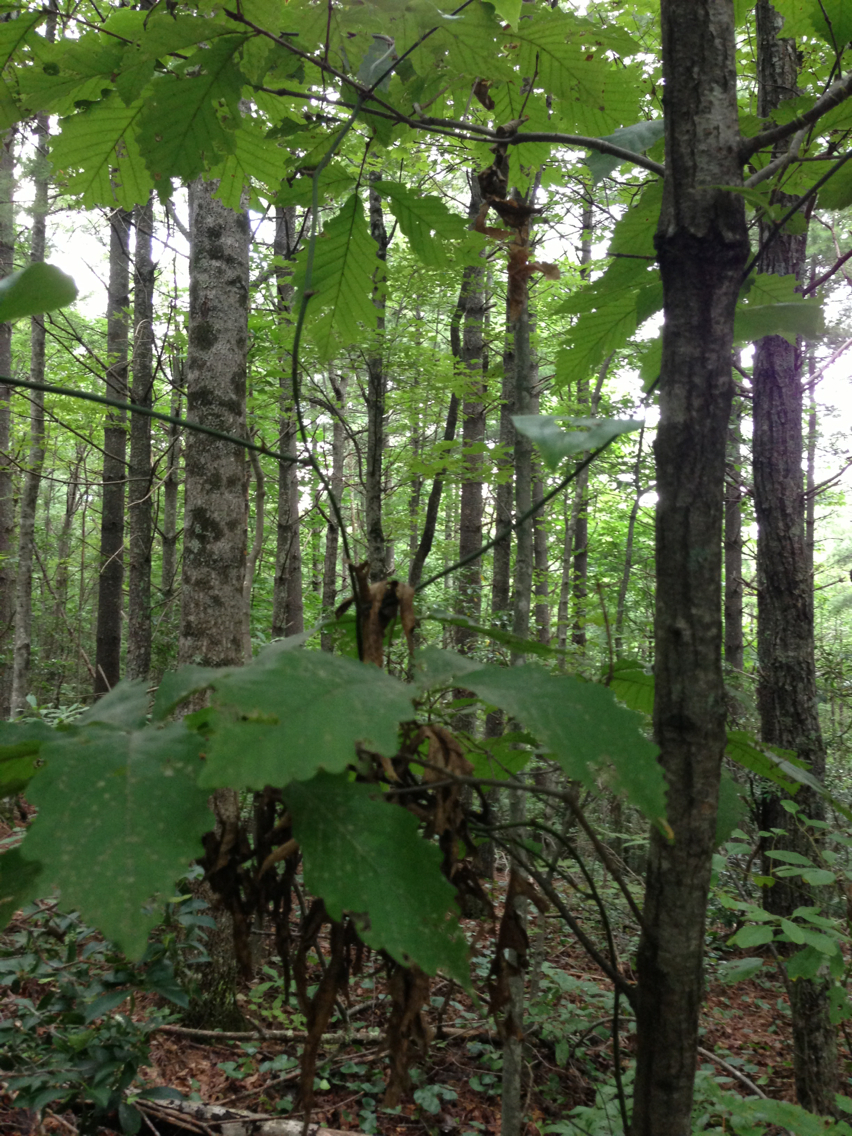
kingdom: Plantae
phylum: Tracheophyta
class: Magnoliopsida
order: Fagales
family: Fagaceae
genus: Quercus
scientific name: Quercus montana
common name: Chestnut oak
